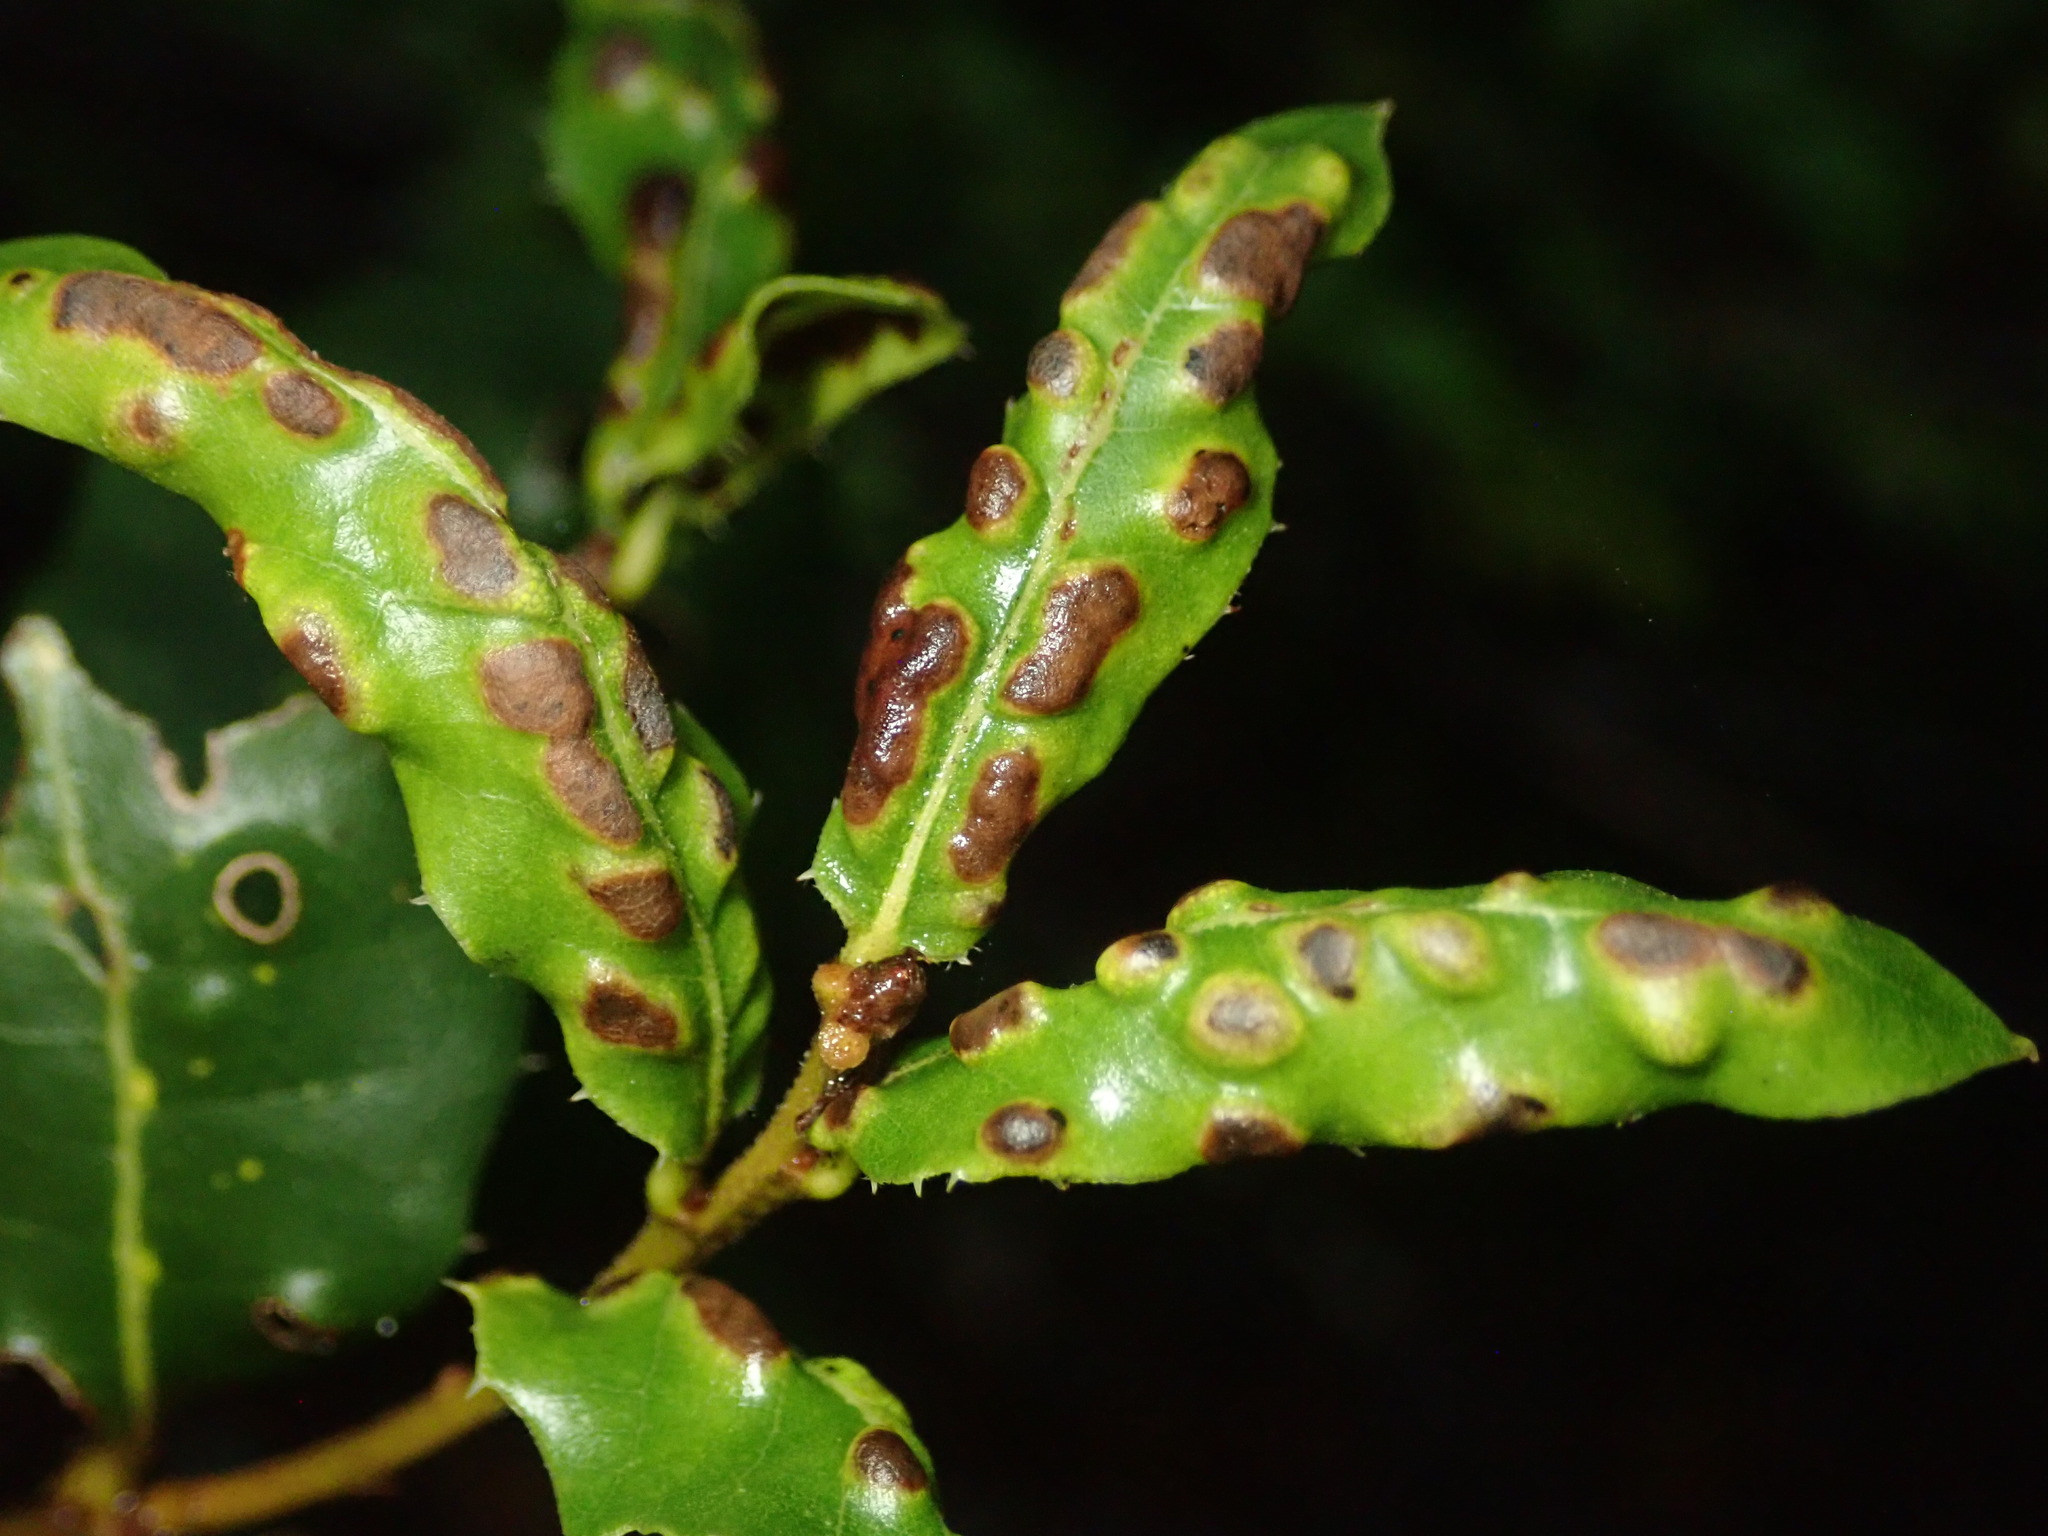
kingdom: Animalia
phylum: Arthropoda
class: Arachnida
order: Trombidiformes
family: Eriophyidae
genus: Aceria
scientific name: Aceria
